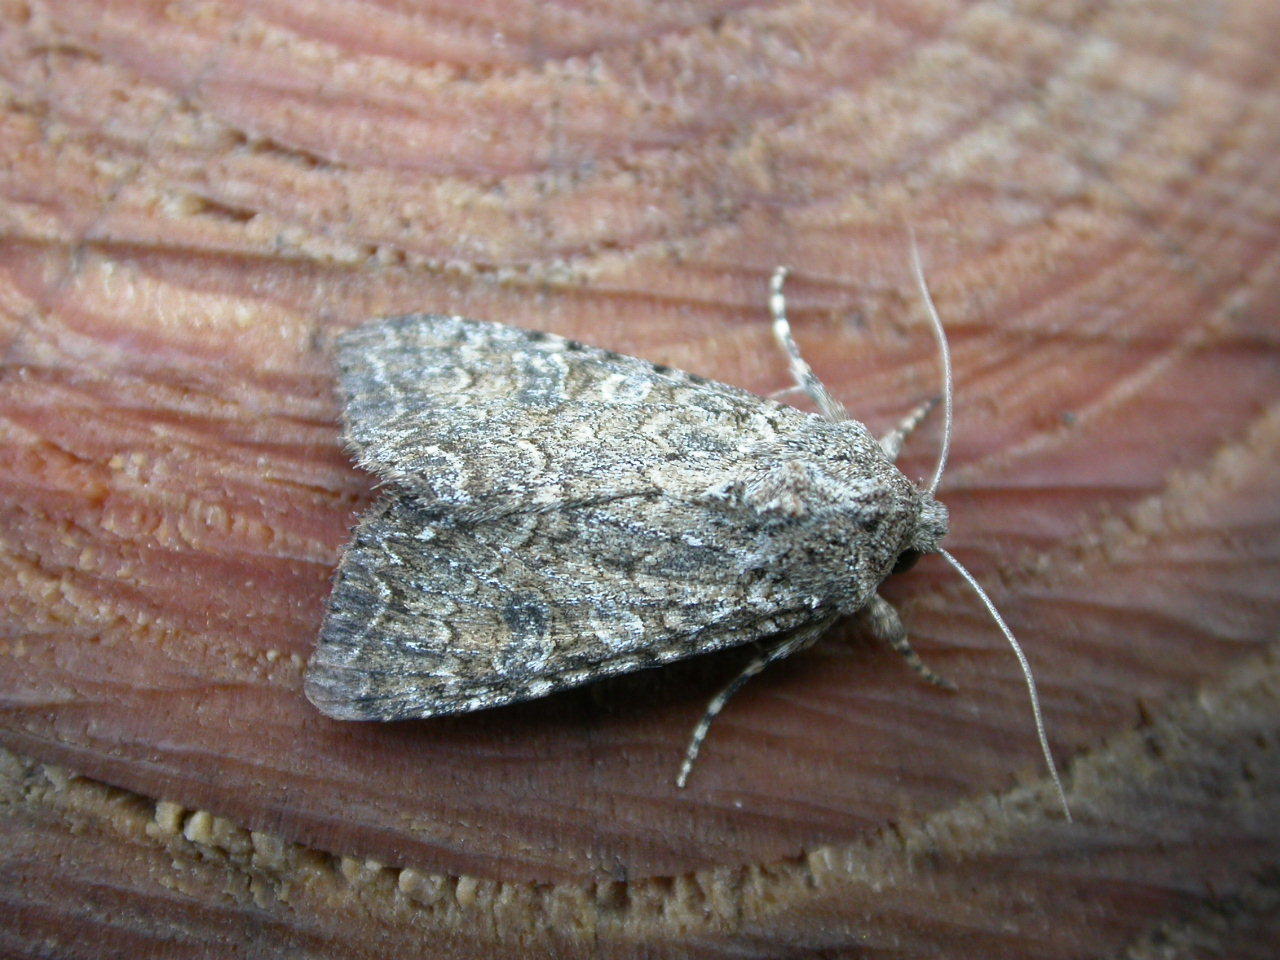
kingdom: Animalia
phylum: Arthropoda
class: Insecta
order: Lepidoptera
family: Noctuidae
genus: Anarta
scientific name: Anarta trifolii
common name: Clover cutworm moth
